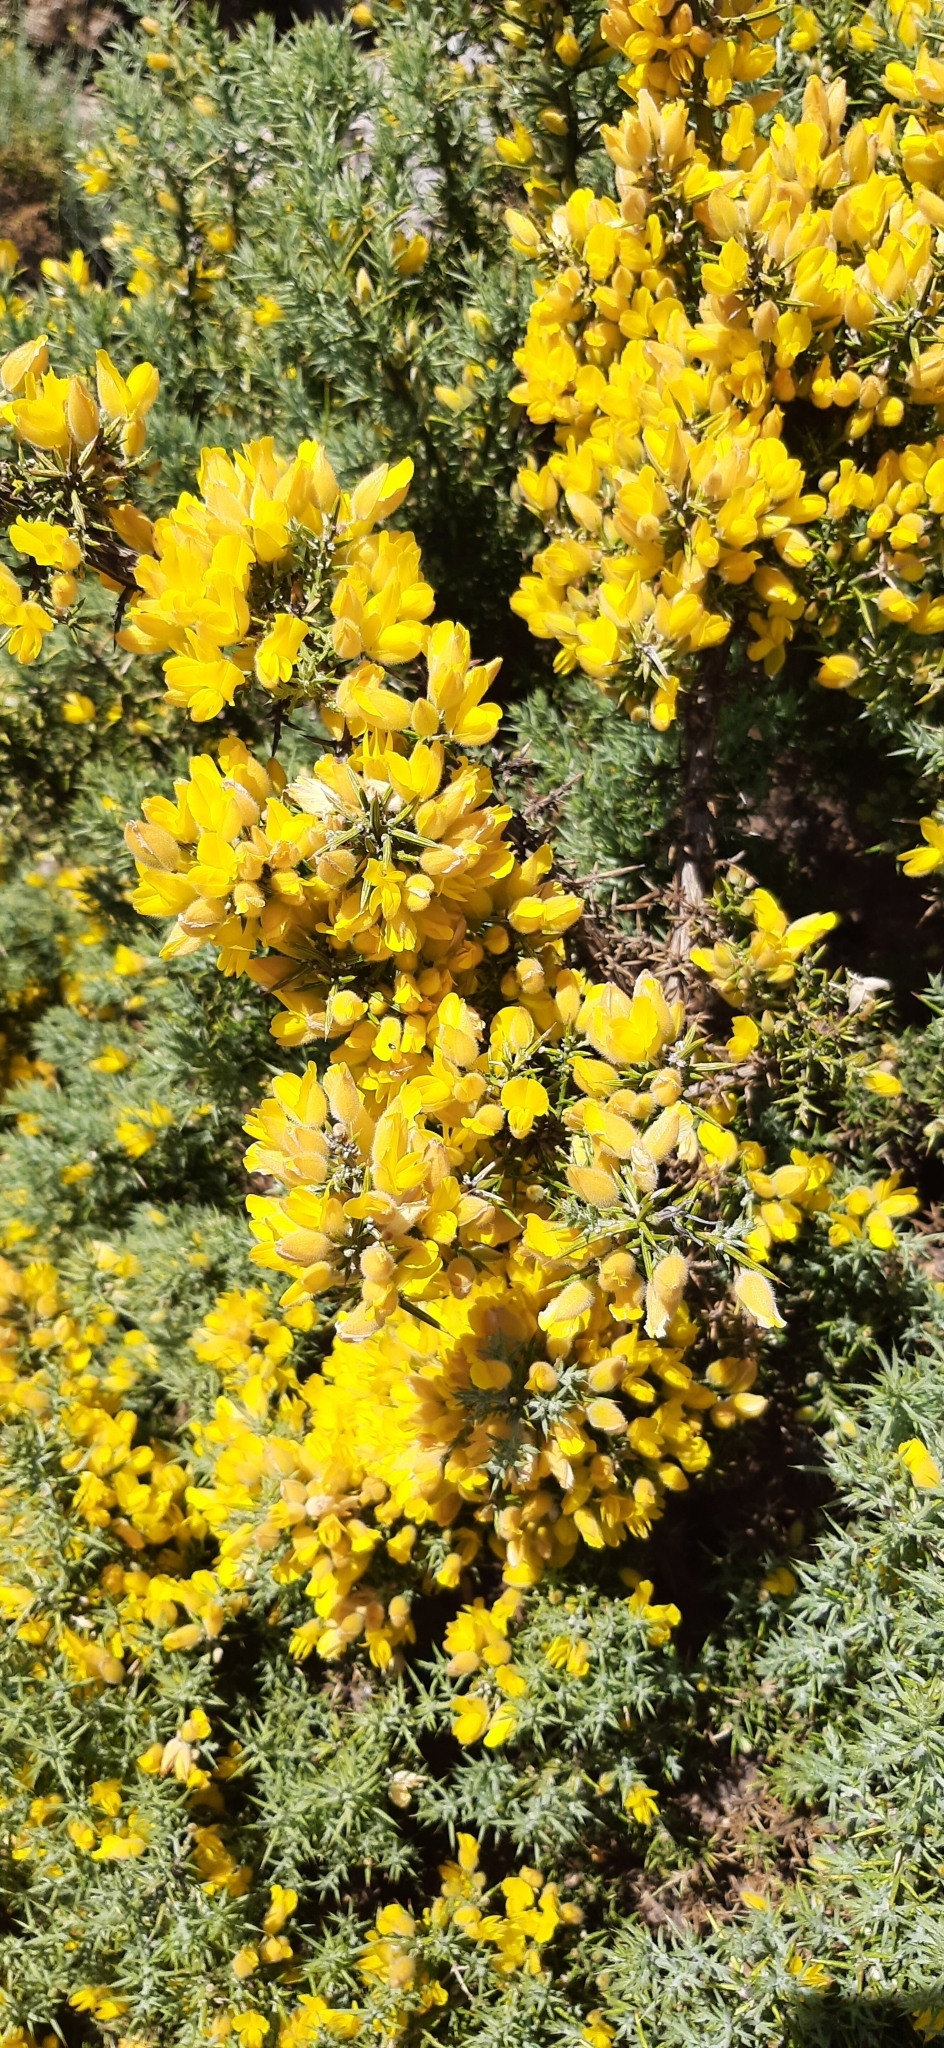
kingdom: Plantae
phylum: Tracheophyta
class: Magnoliopsida
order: Fabales
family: Fabaceae
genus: Ulex
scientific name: Ulex baeticus
